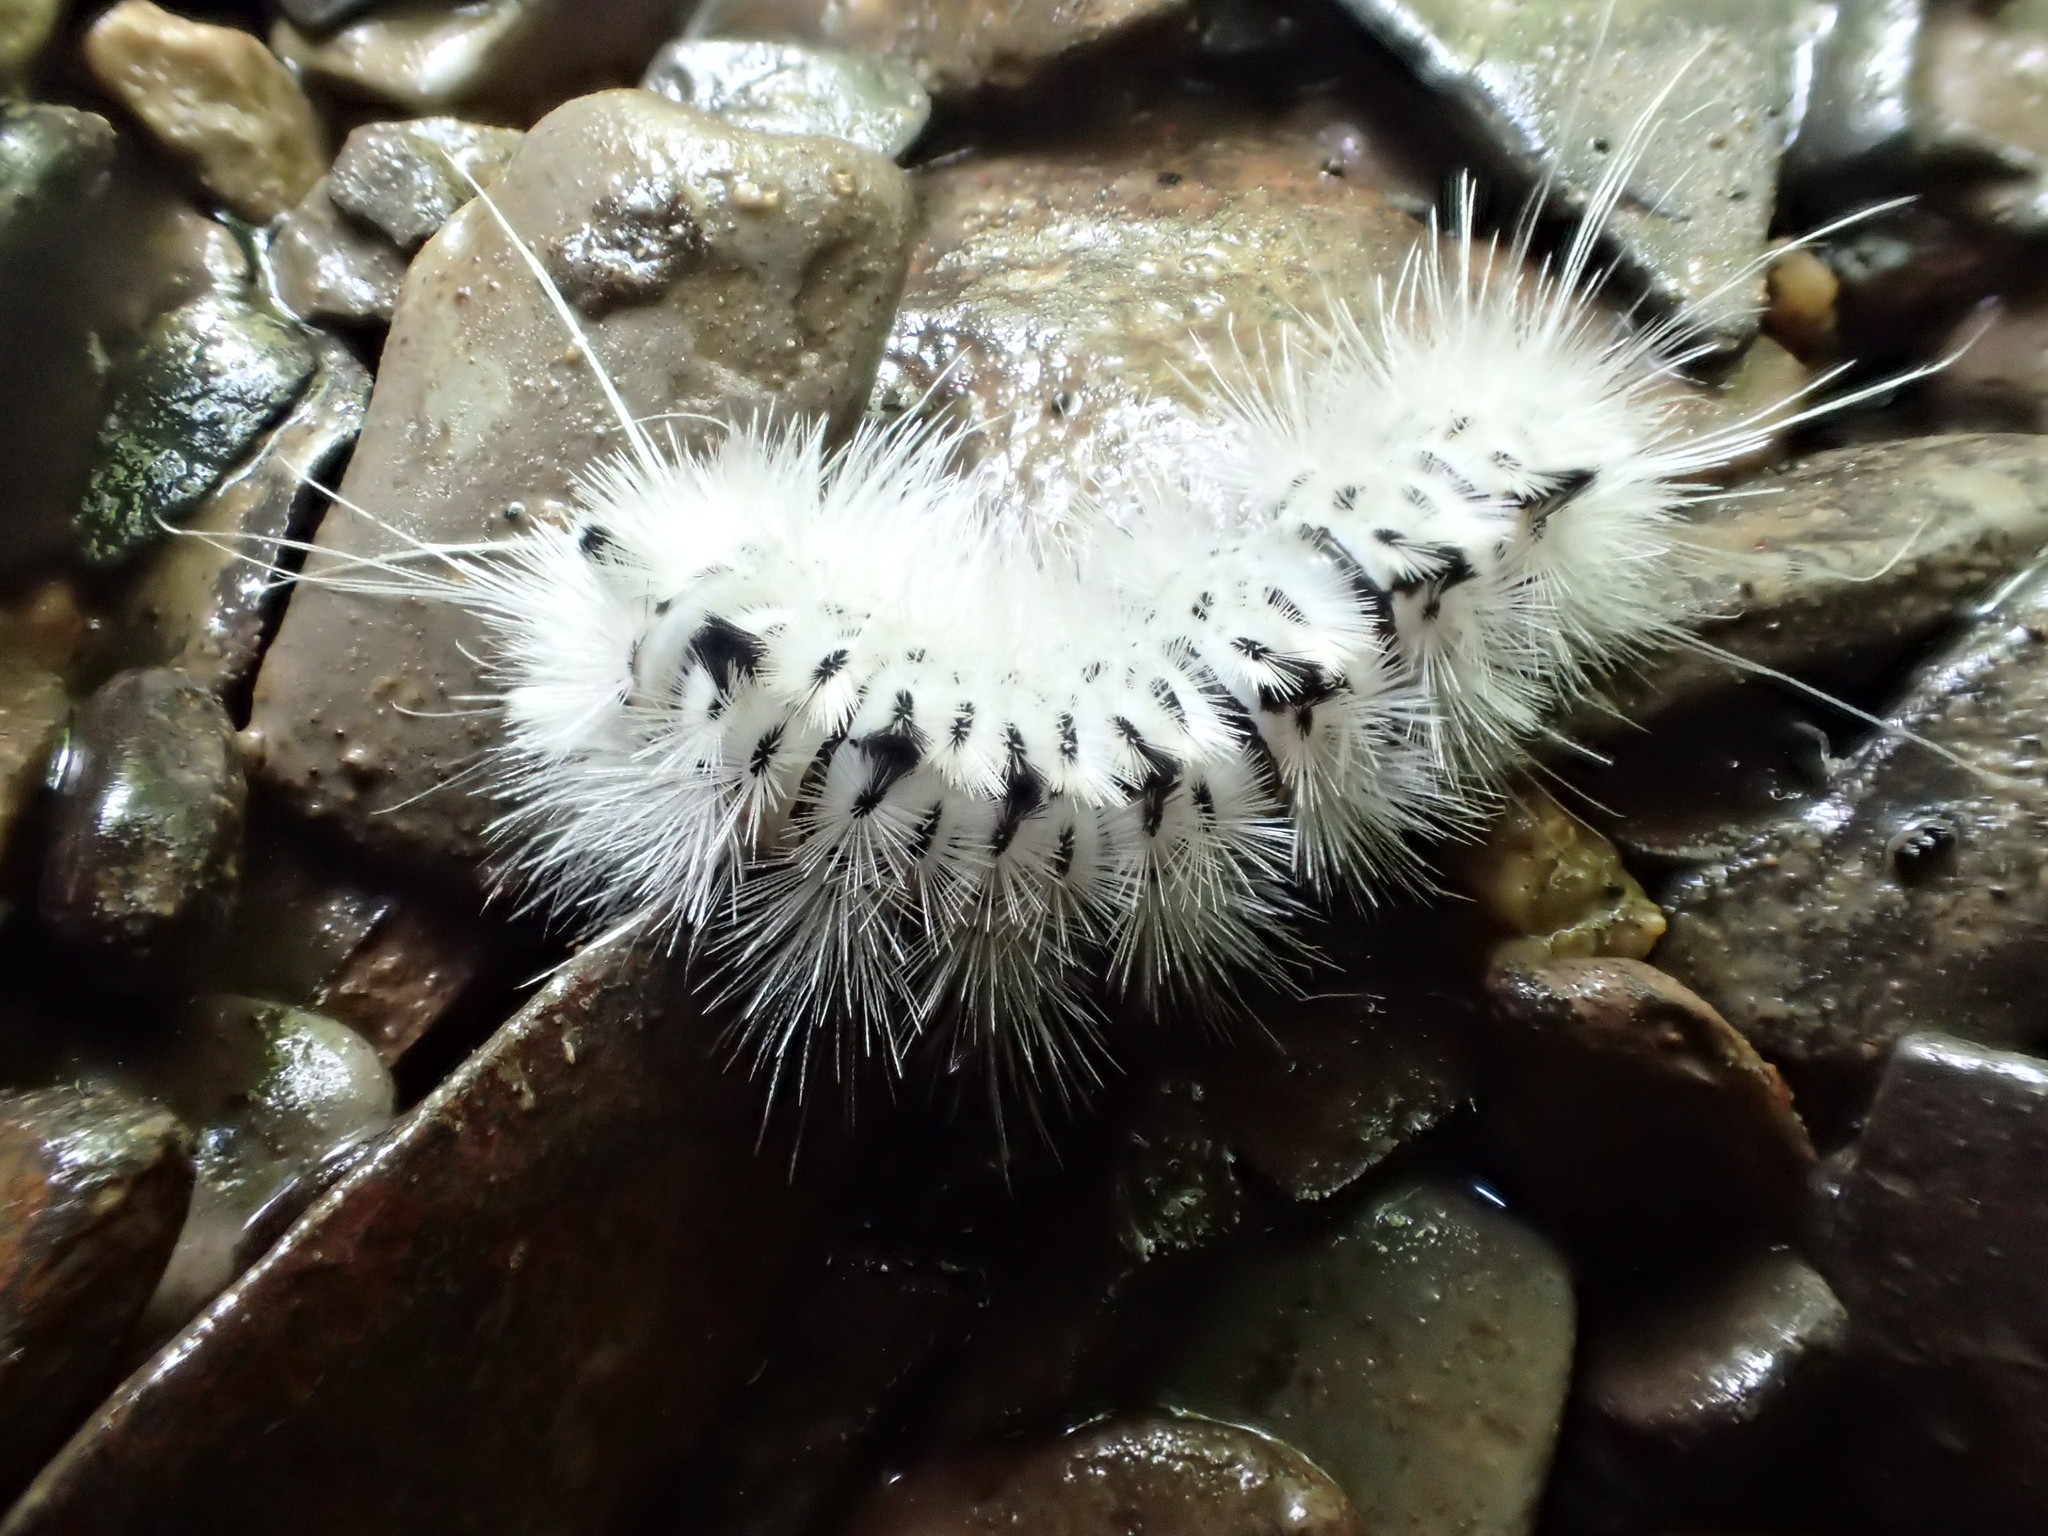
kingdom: Animalia
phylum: Arthropoda
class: Insecta
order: Lepidoptera
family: Erebidae
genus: Lophocampa
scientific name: Lophocampa caryae
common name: Hickory tussock moth
